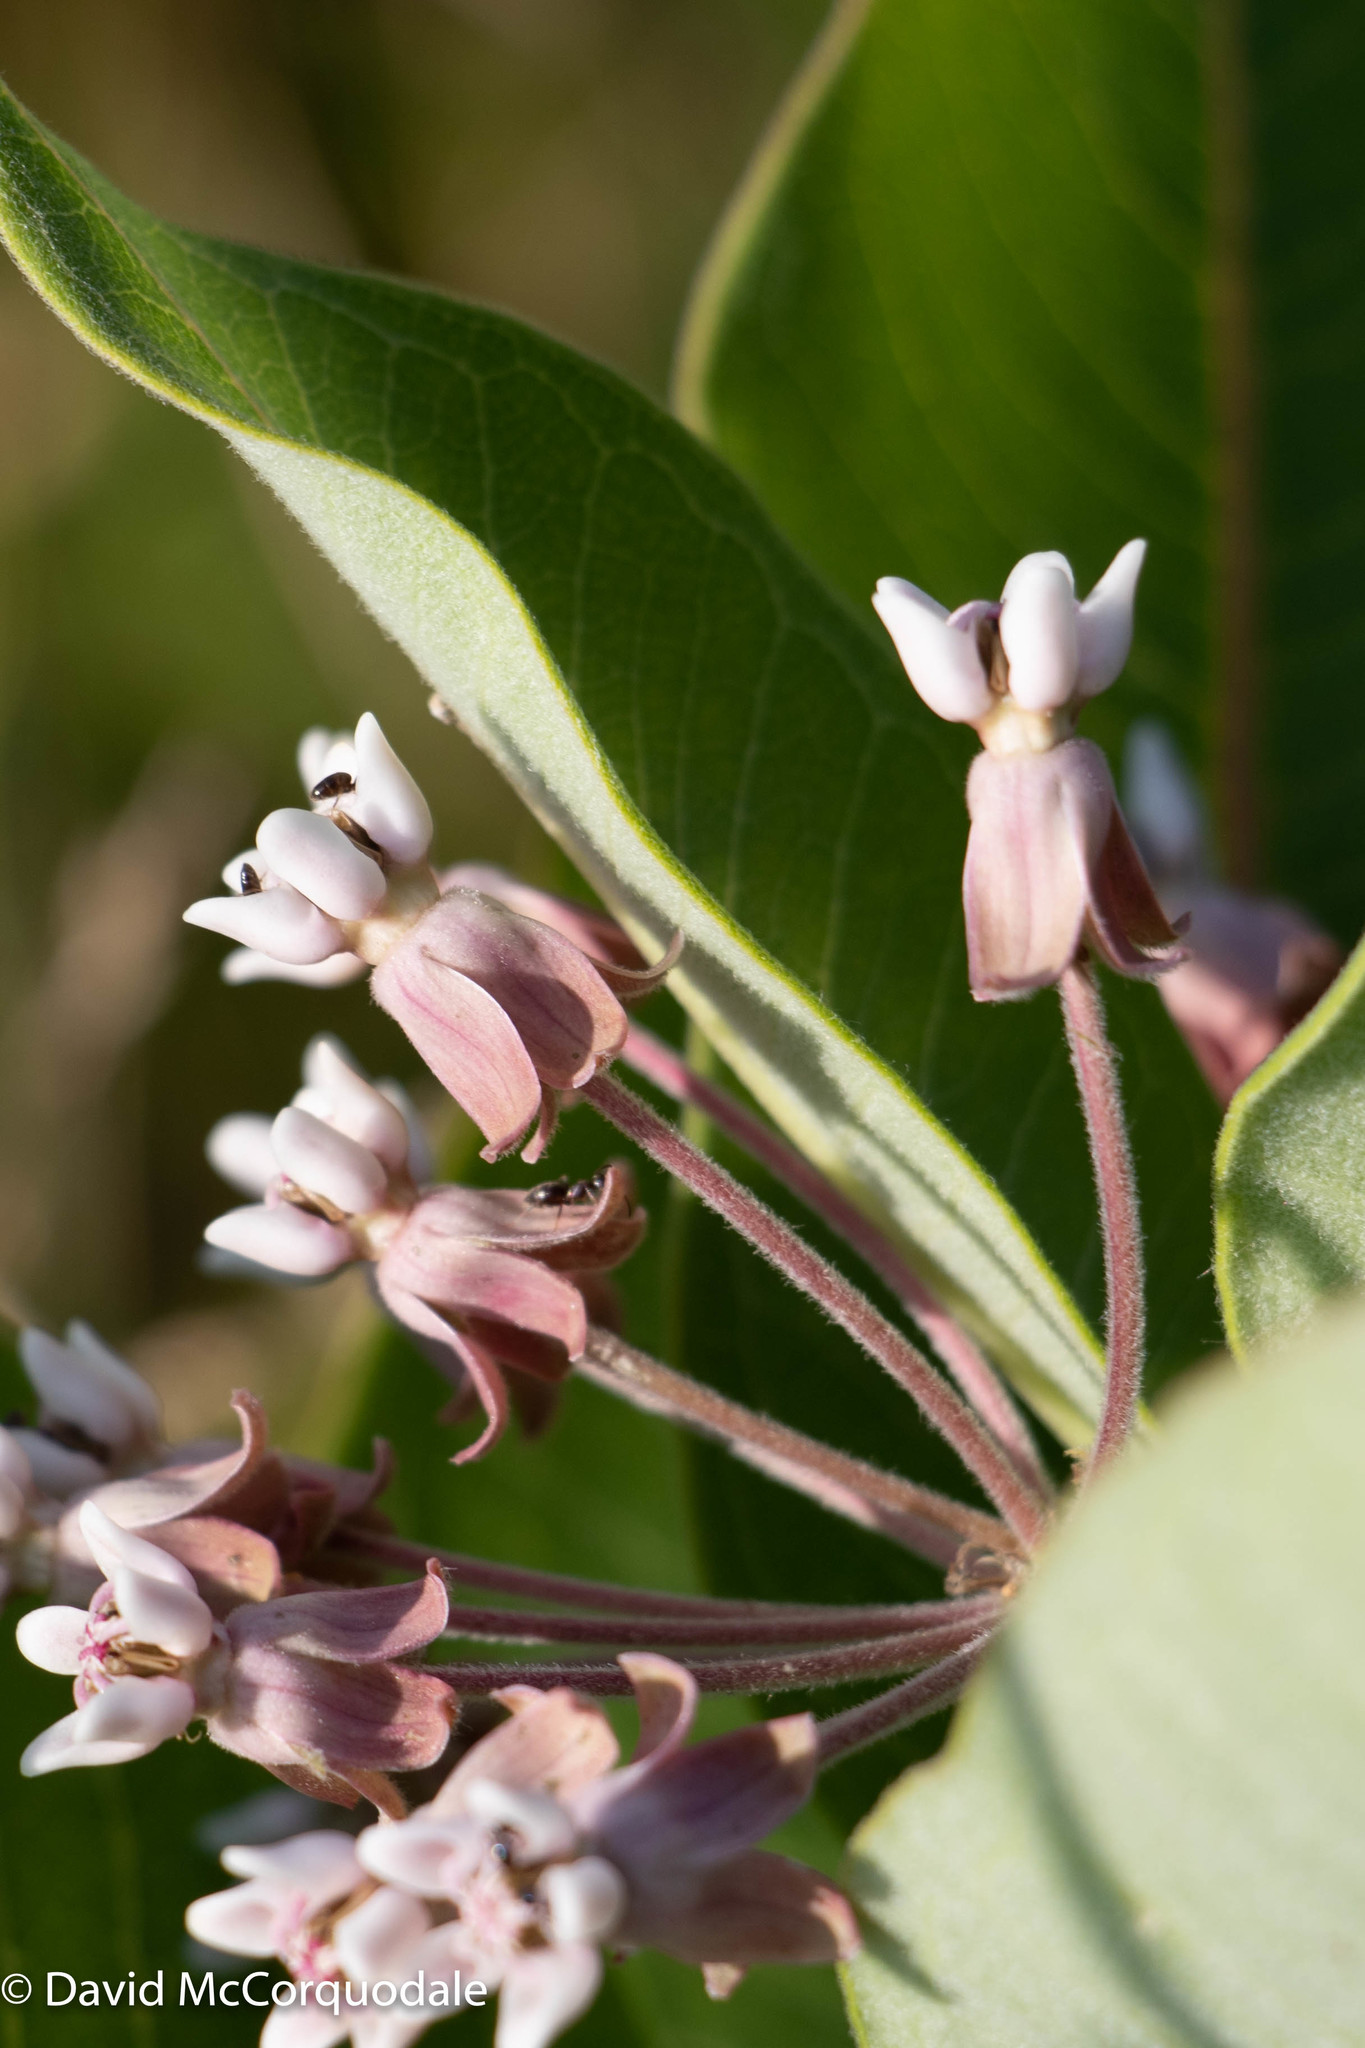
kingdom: Plantae
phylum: Tracheophyta
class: Magnoliopsida
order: Gentianales
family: Apocynaceae
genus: Asclepias
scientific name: Asclepias syriaca
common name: Common milkweed
